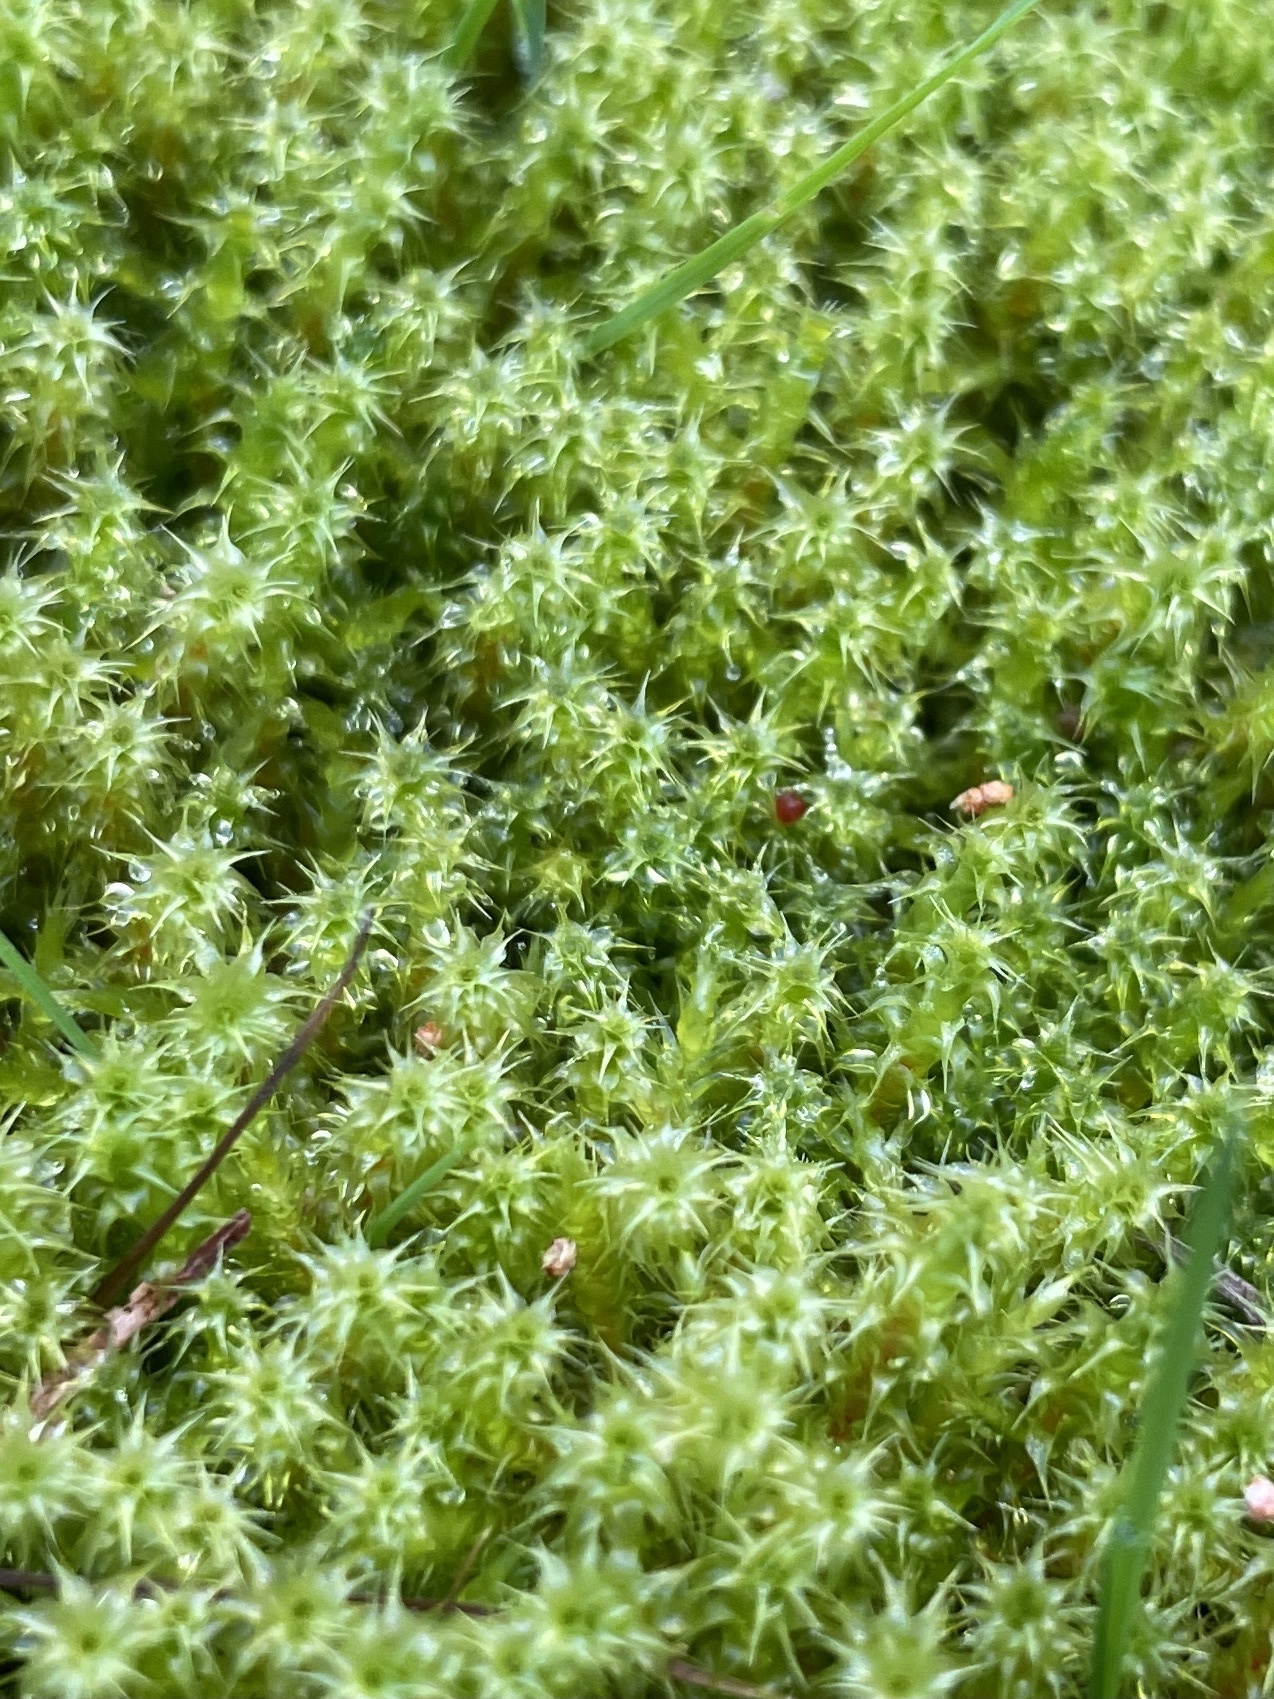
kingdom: Plantae
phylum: Bryophyta
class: Bryopsida
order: Hypnales
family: Hylocomiaceae
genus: Rhytidiadelphus
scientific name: Rhytidiadelphus squarrosus
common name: Springy turf-moss
